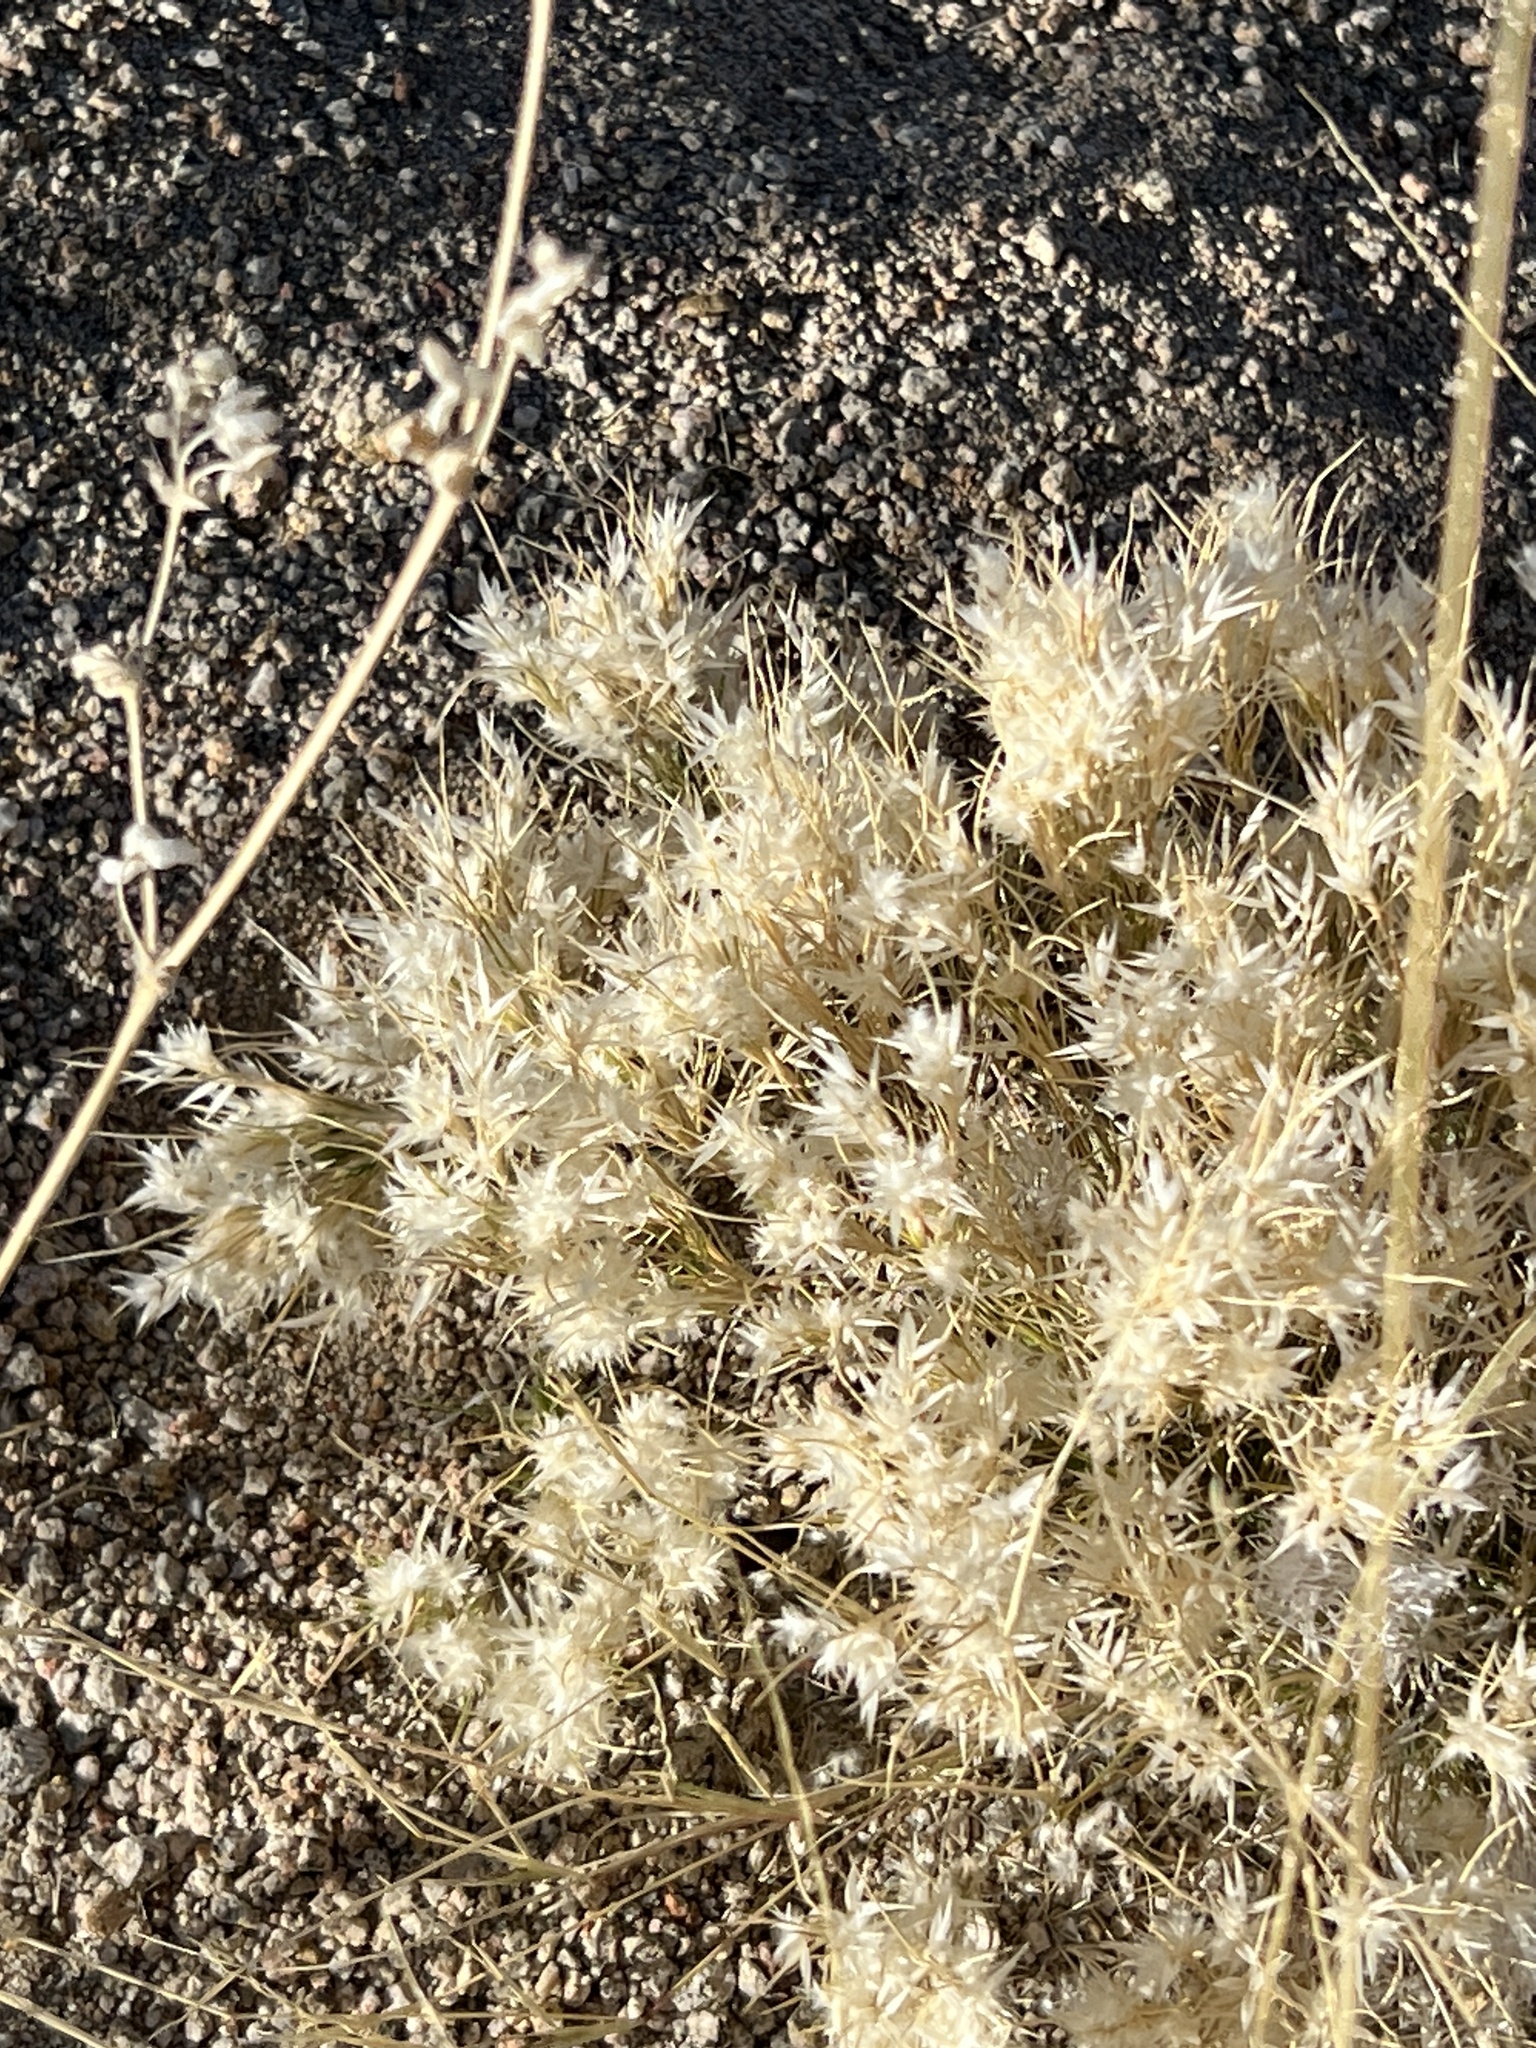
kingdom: Plantae
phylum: Tracheophyta
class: Liliopsida
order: Poales
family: Poaceae
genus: Dasyochloa
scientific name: Dasyochloa pulchella
